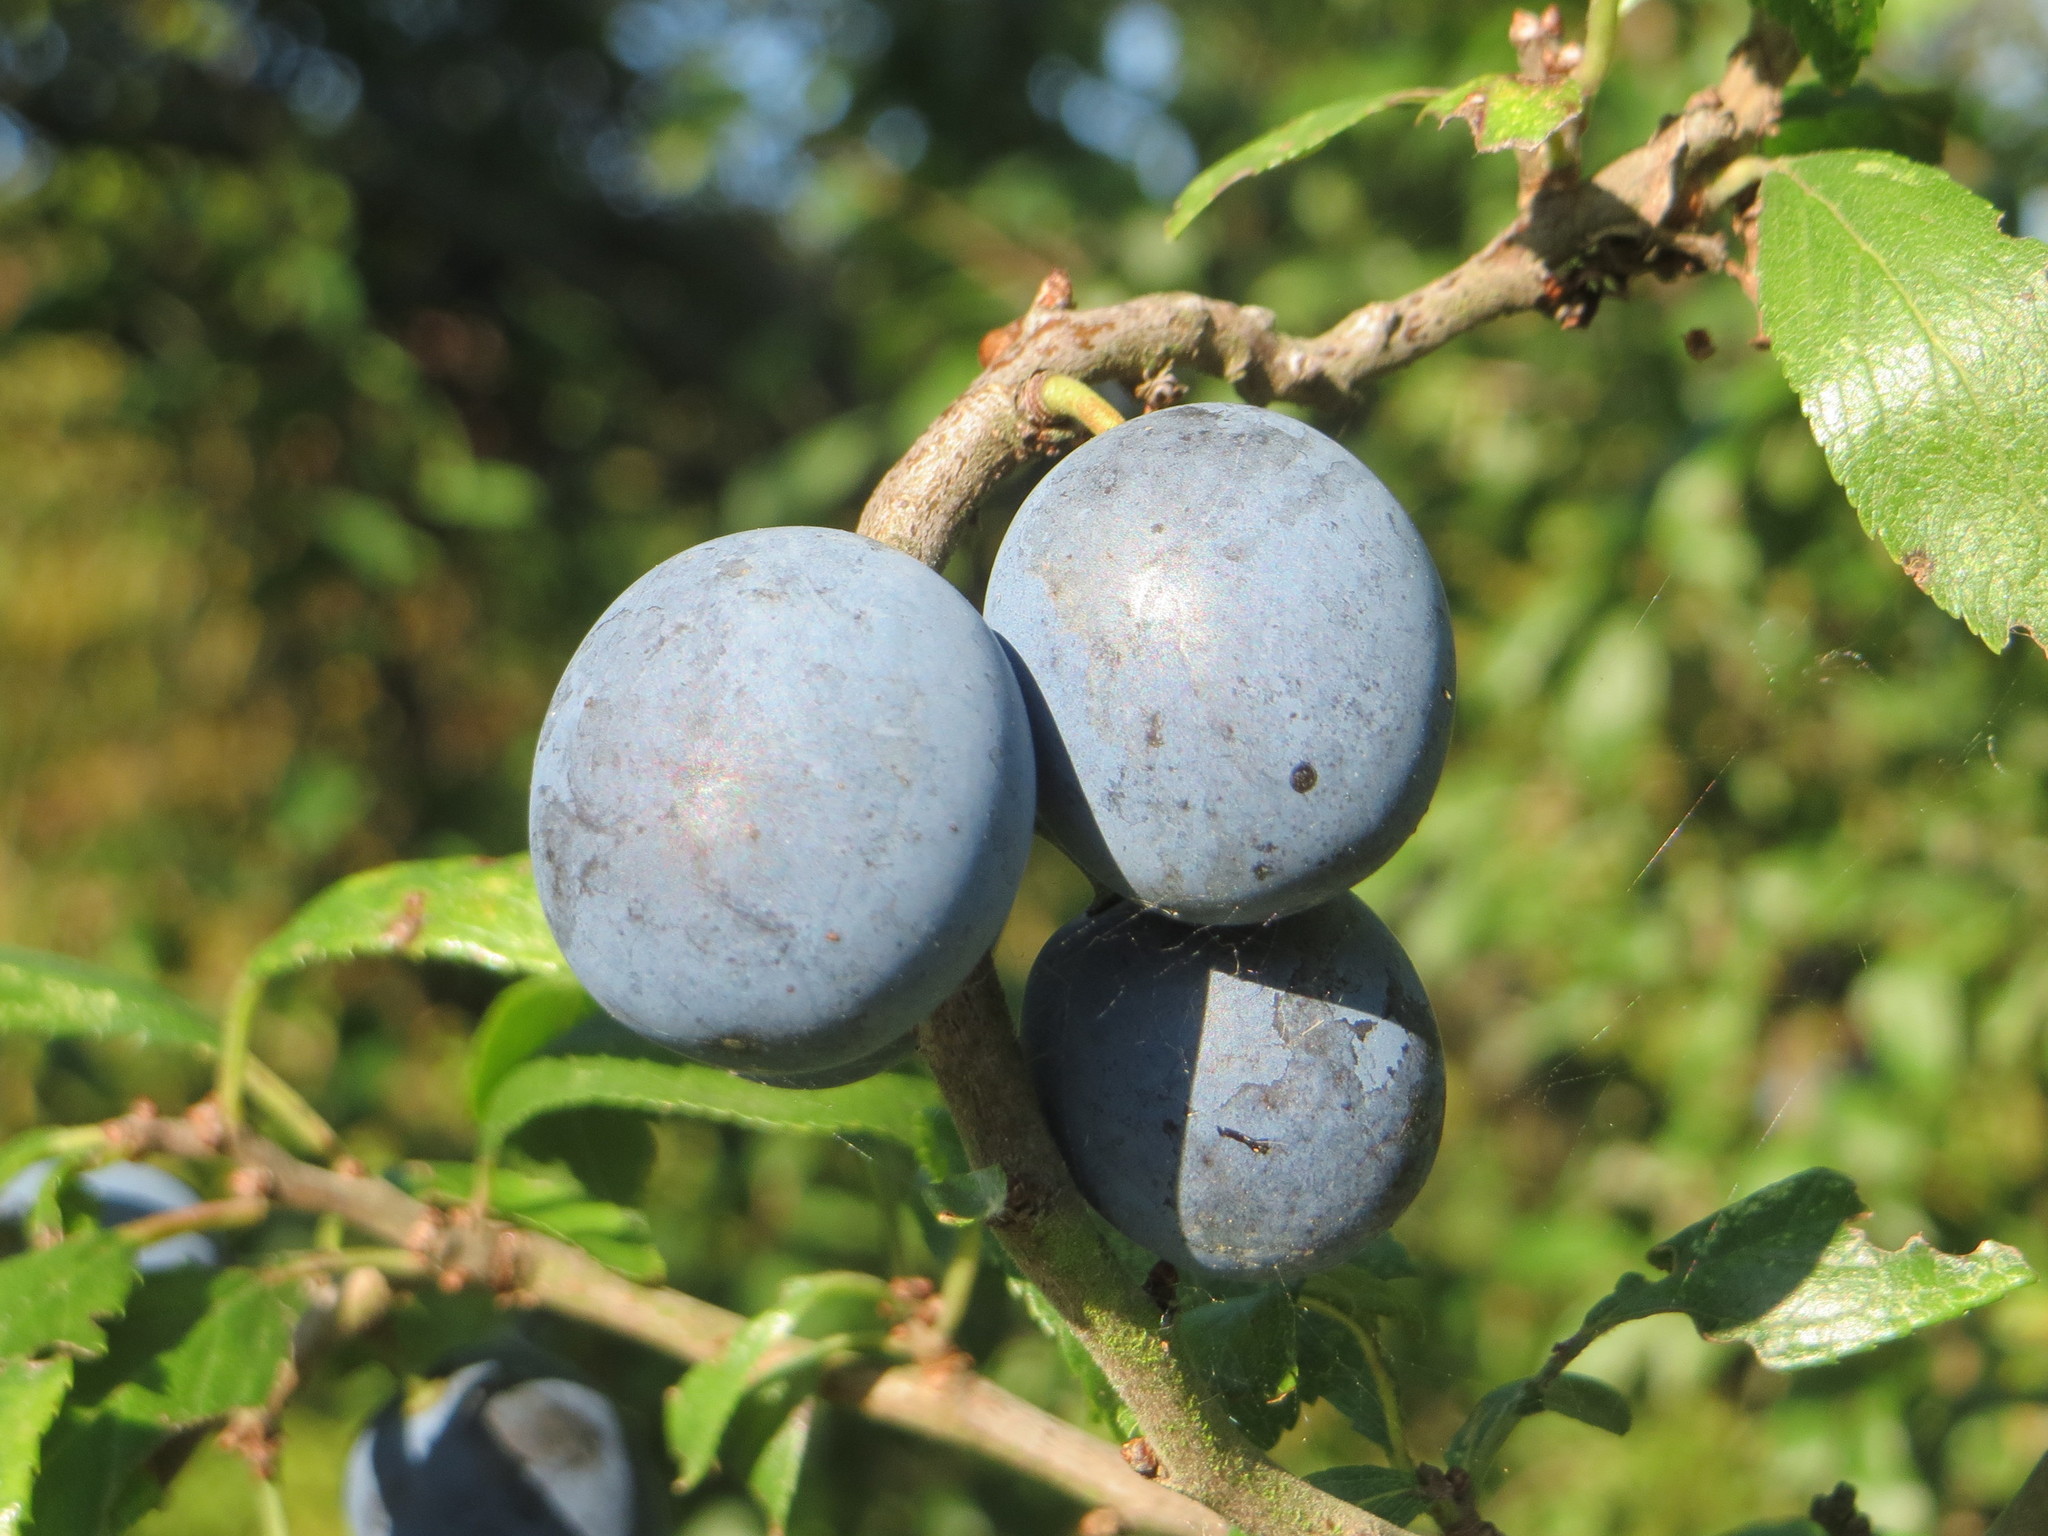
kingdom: Plantae
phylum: Tracheophyta
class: Magnoliopsida
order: Rosales
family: Rosaceae
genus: Prunus
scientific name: Prunus spinosa
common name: Blackthorn
